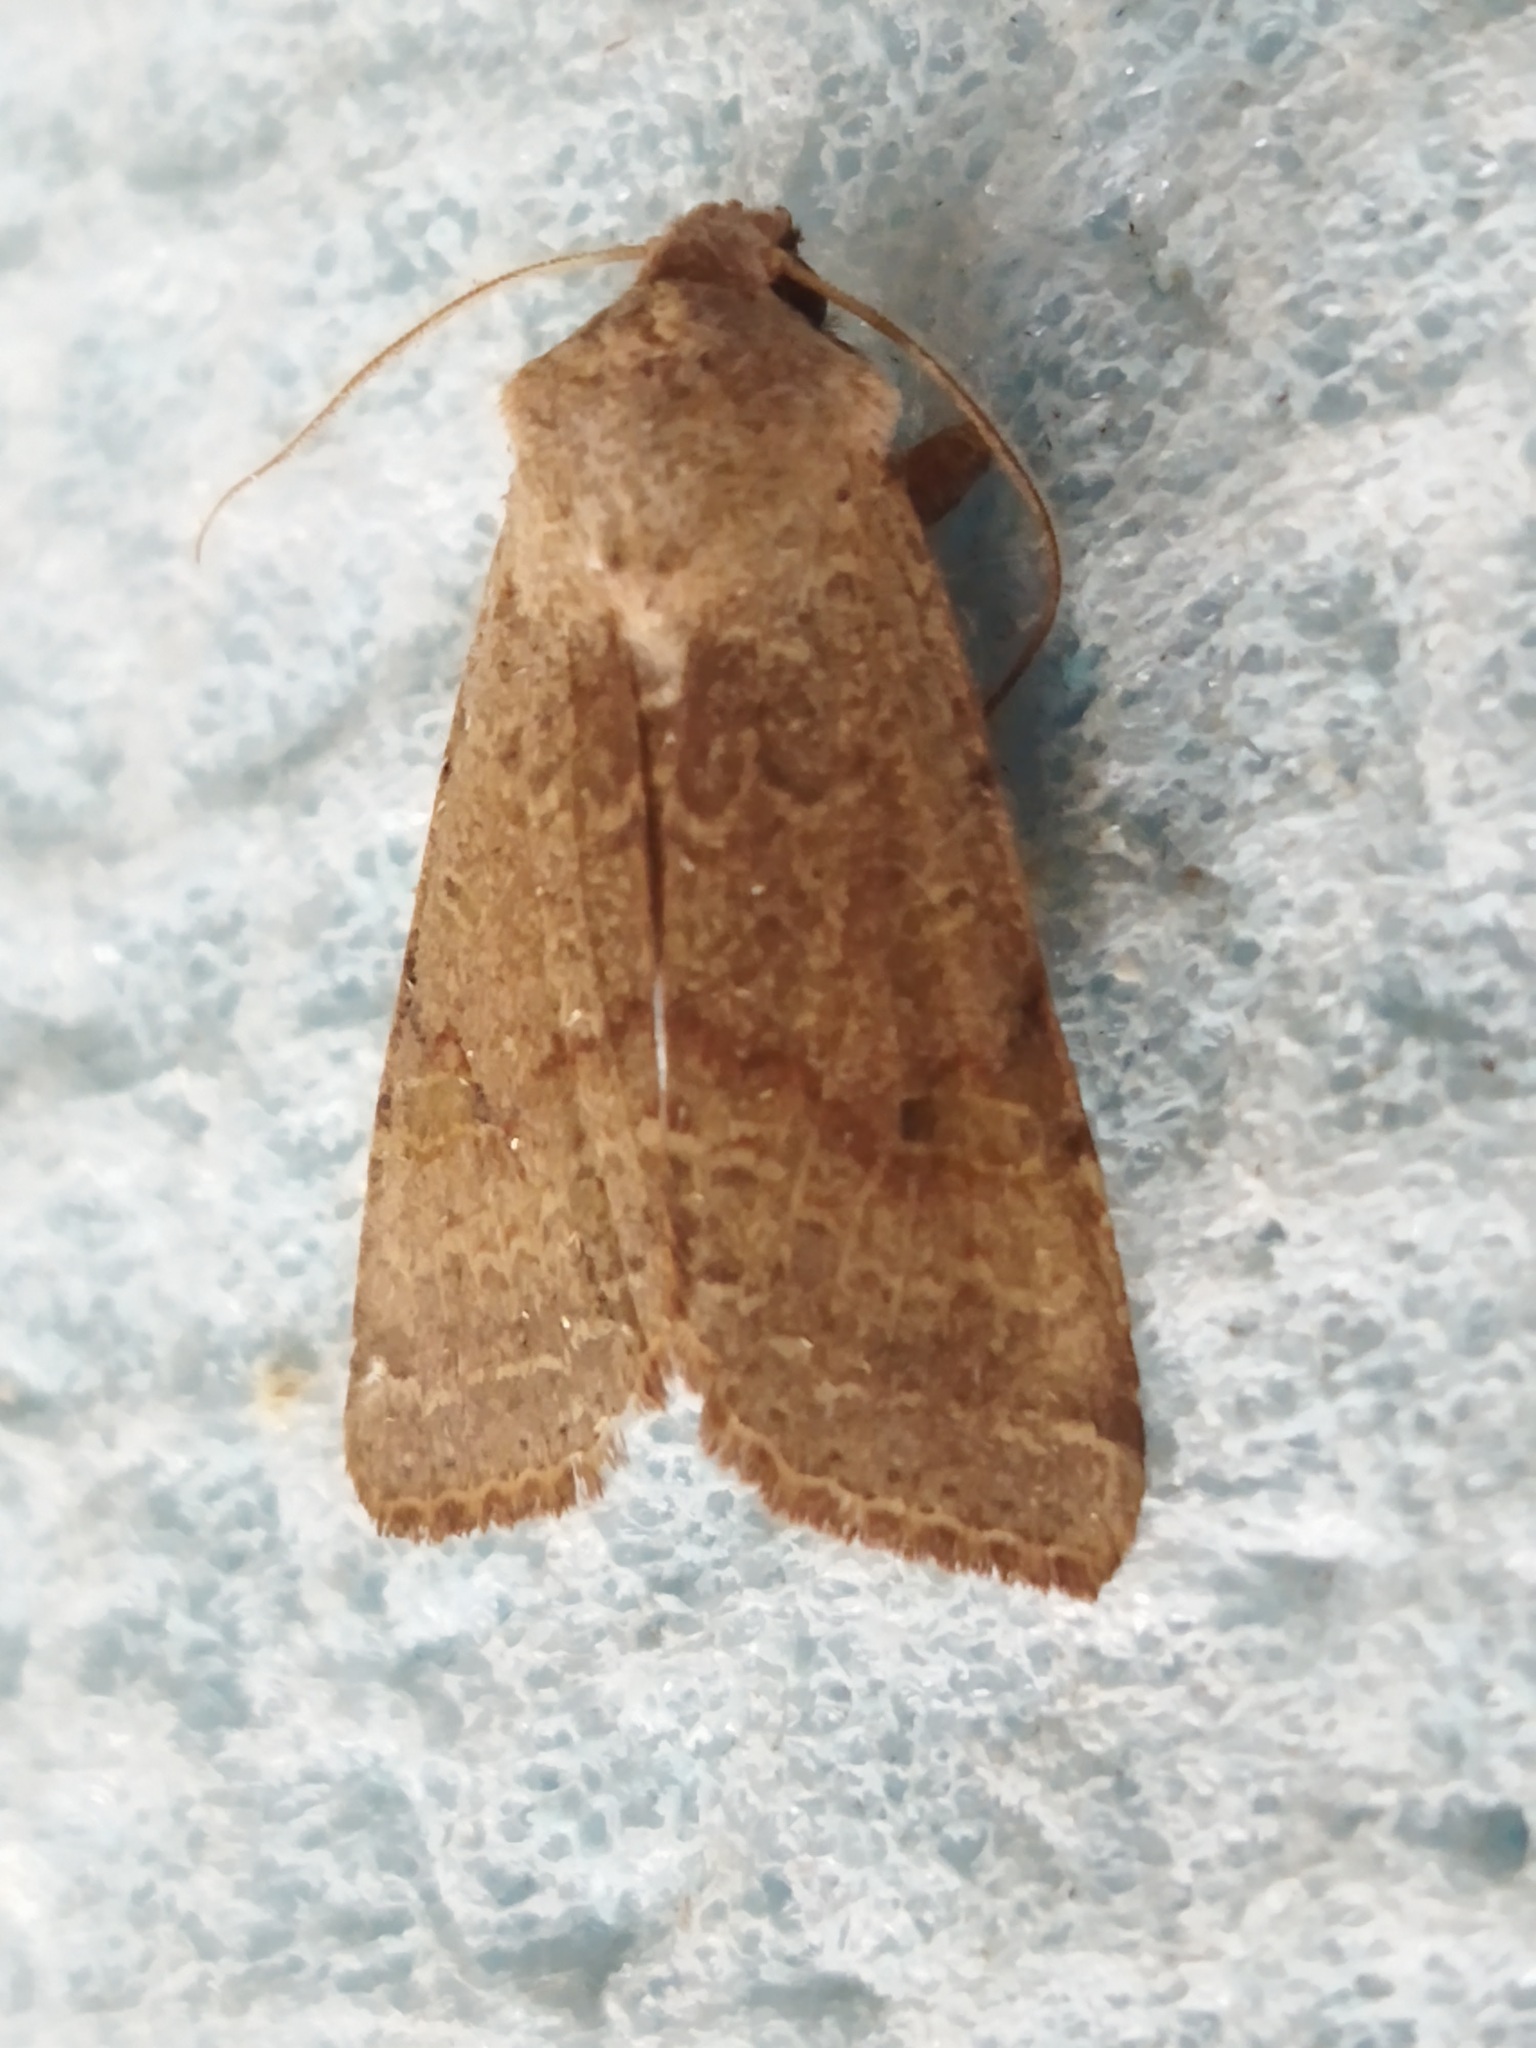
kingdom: Animalia
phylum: Arthropoda
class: Insecta
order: Lepidoptera
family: Noctuidae
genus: Agrochola
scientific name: Agrochola lychnidis
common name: Beaded chestnut
